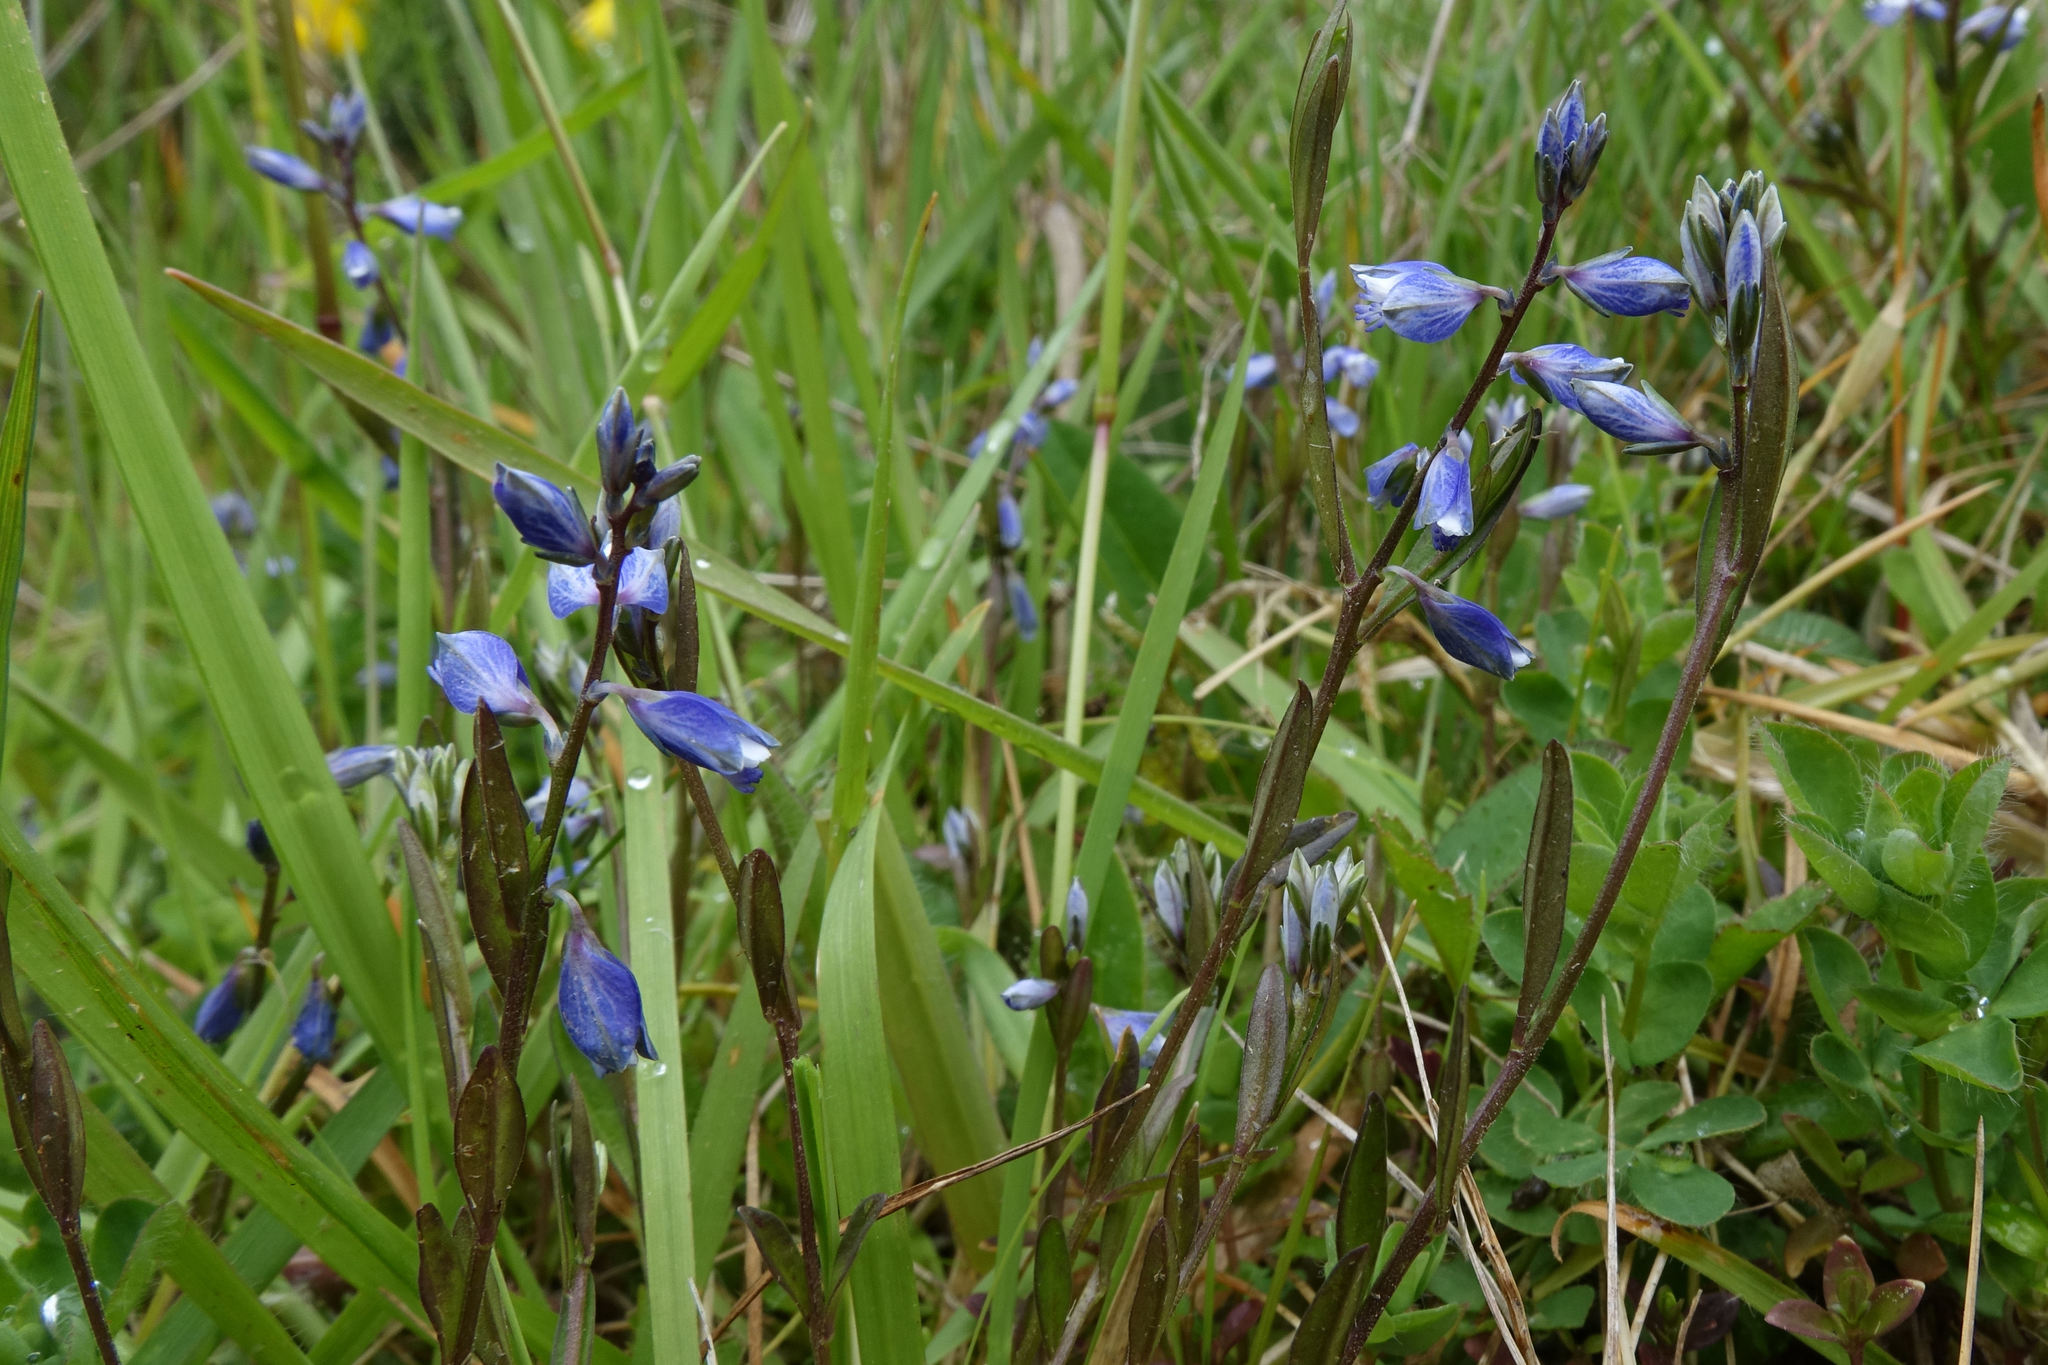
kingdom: Plantae
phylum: Tracheophyta
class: Magnoliopsida
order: Fabales
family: Polygalaceae
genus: Polygala
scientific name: Polygala serpyllifolia
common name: Heath milkwort
